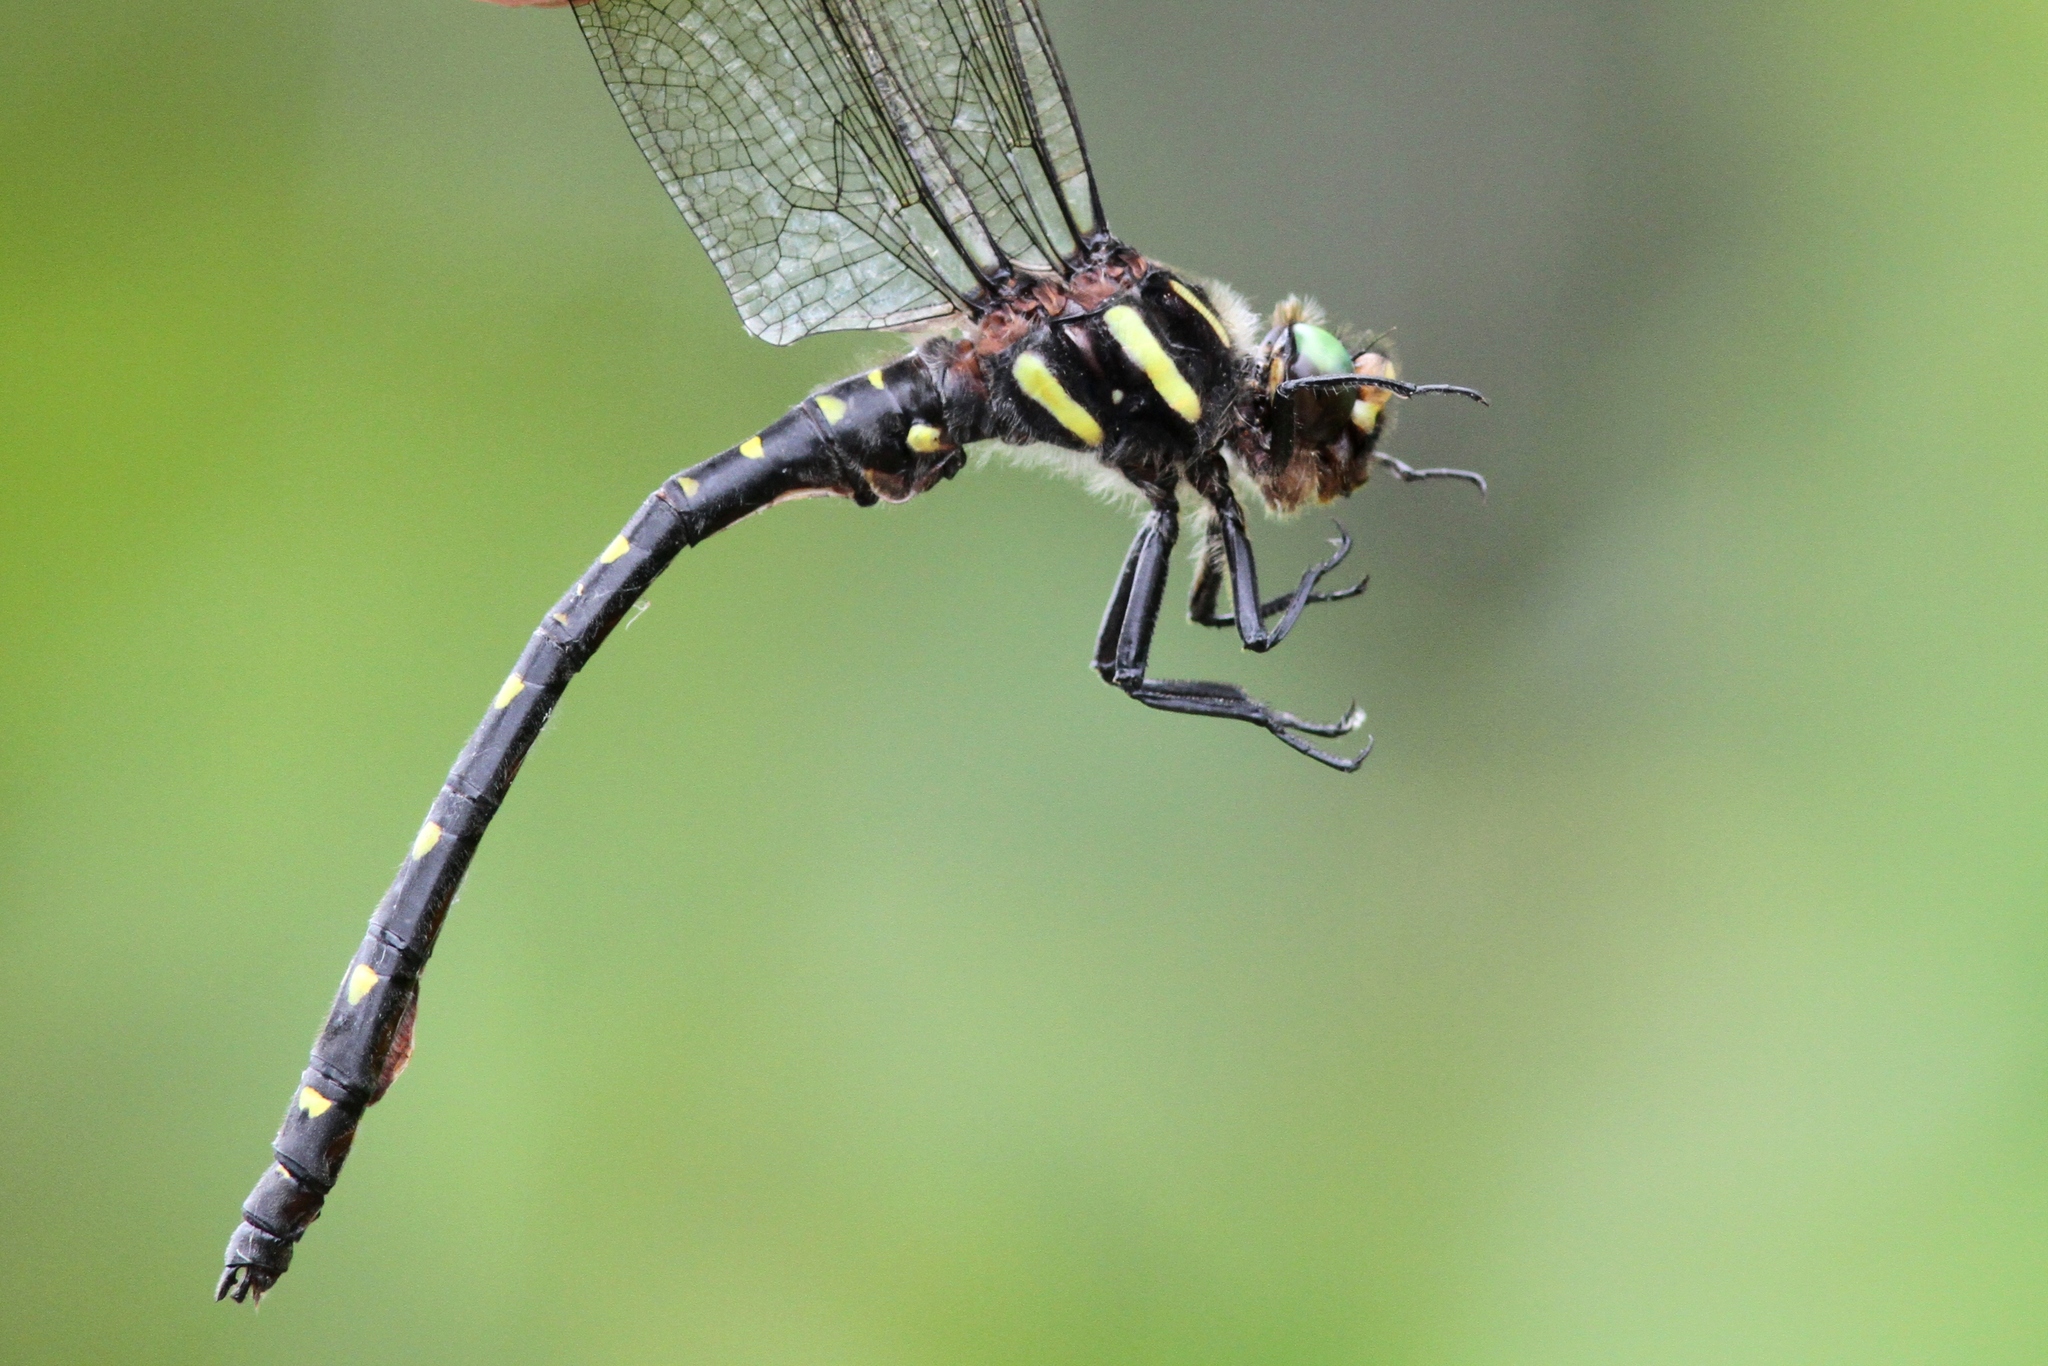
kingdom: Animalia
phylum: Arthropoda
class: Insecta
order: Odonata
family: Cordulegastridae
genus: Cordulegaster
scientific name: Cordulegaster maculata
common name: Twin-spotted spiketail
